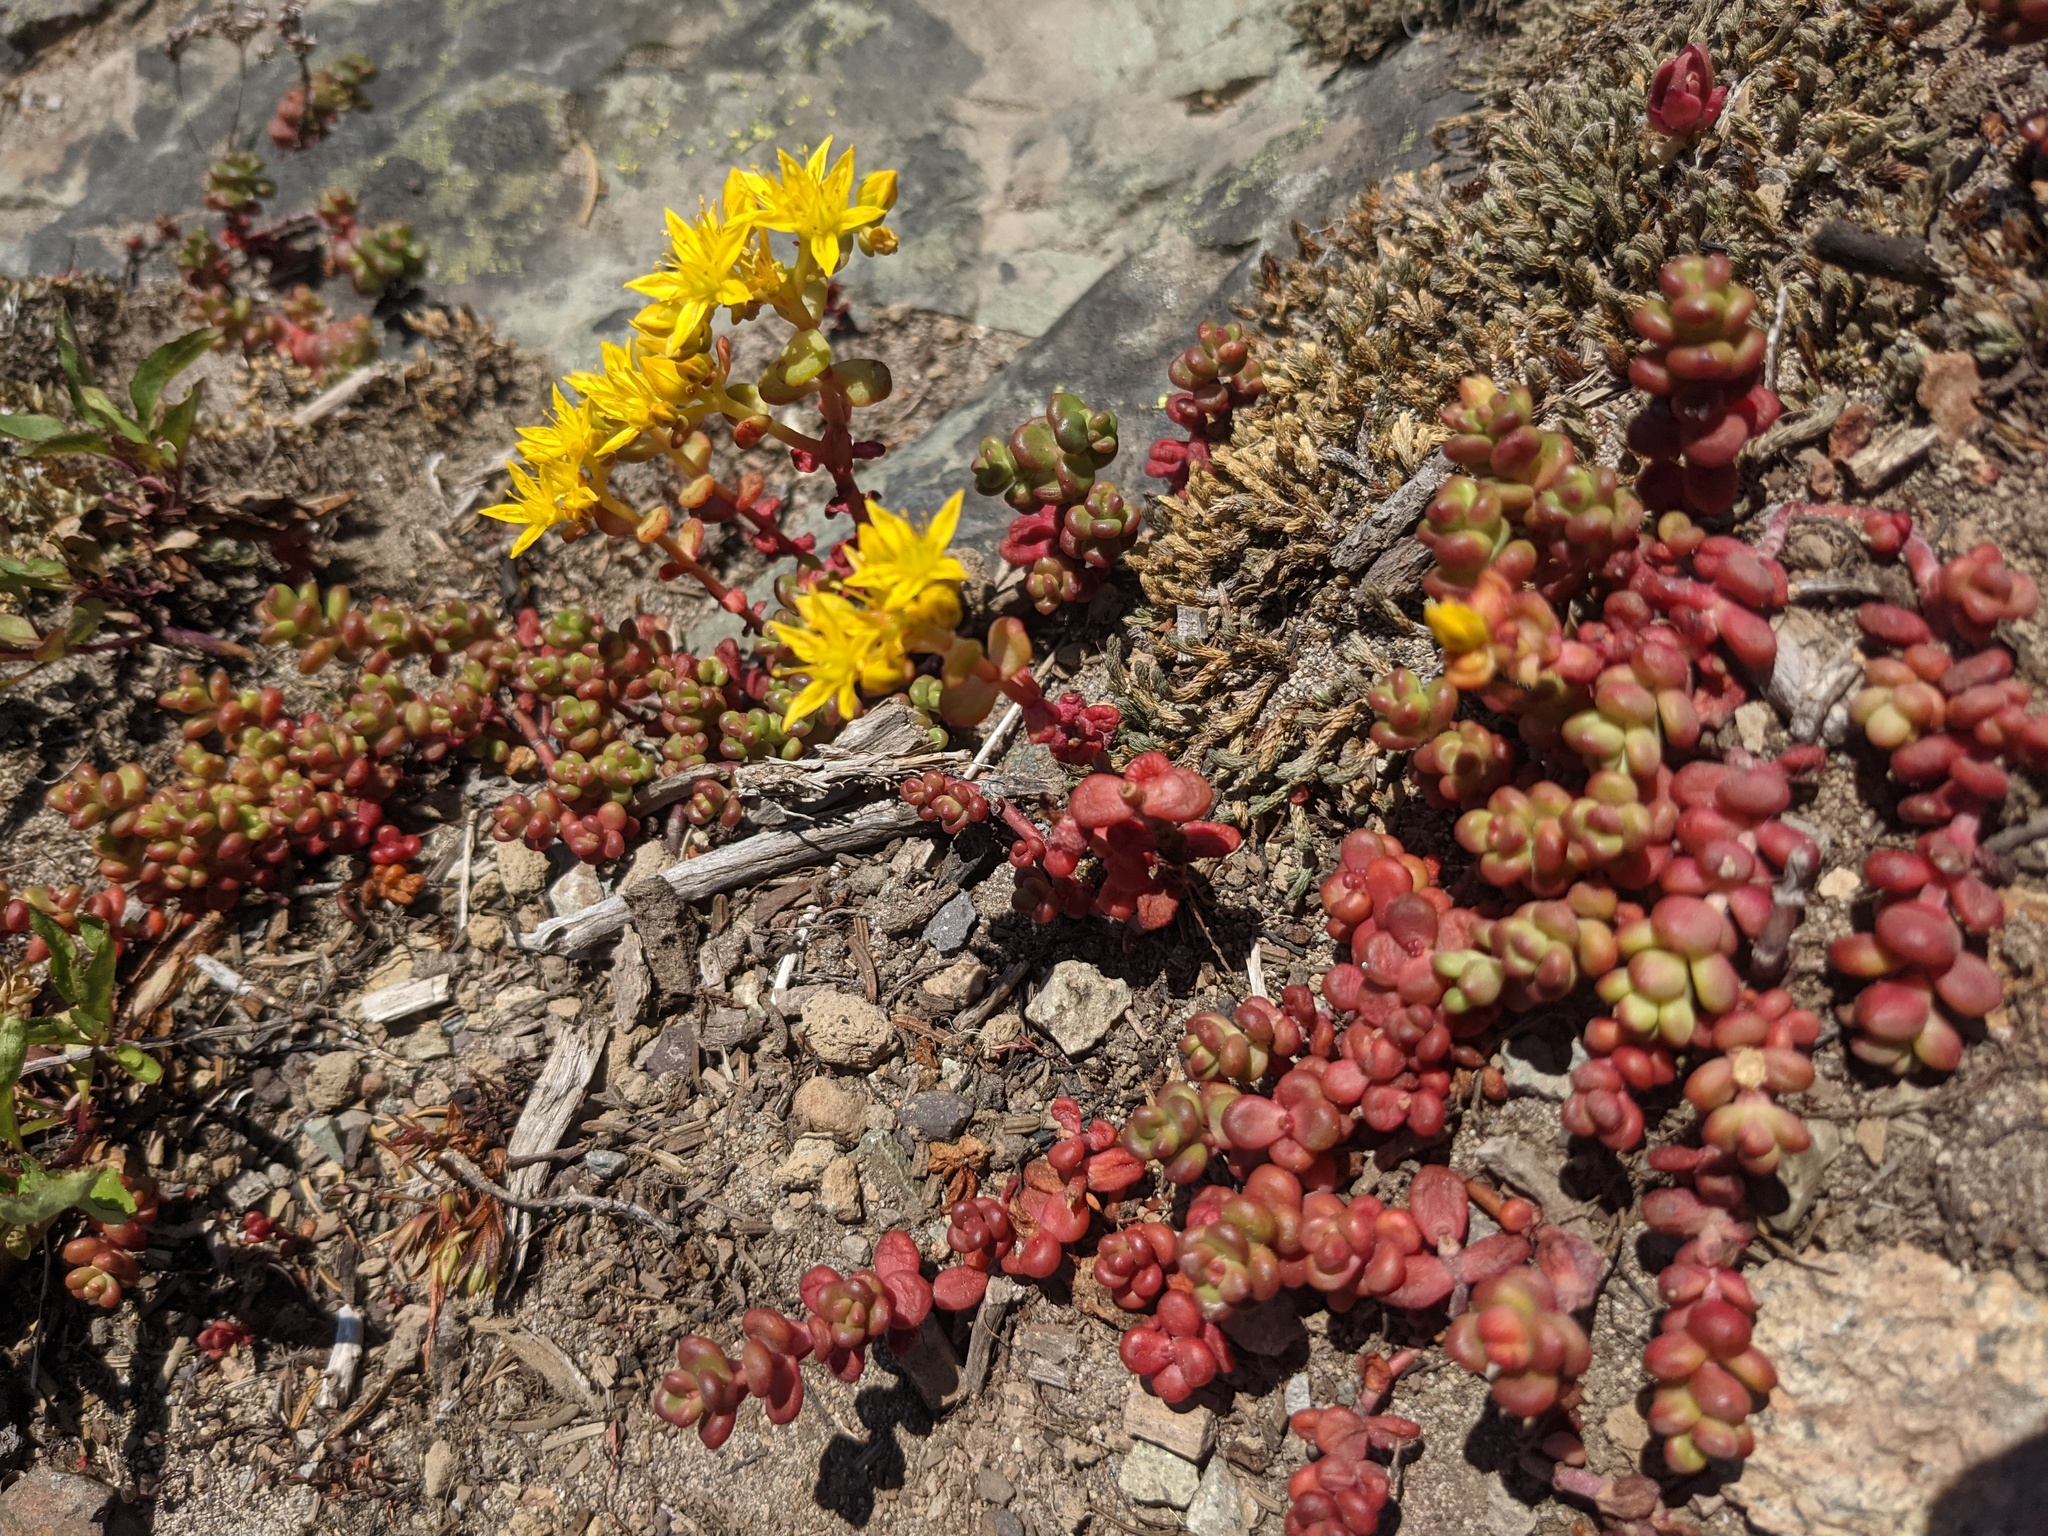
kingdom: Plantae
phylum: Tracheophyta
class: Magnoliopsida
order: Saxifragales
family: Crassulaceae
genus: Sedum
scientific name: Sedum divergens
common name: Cascade stonecrop
